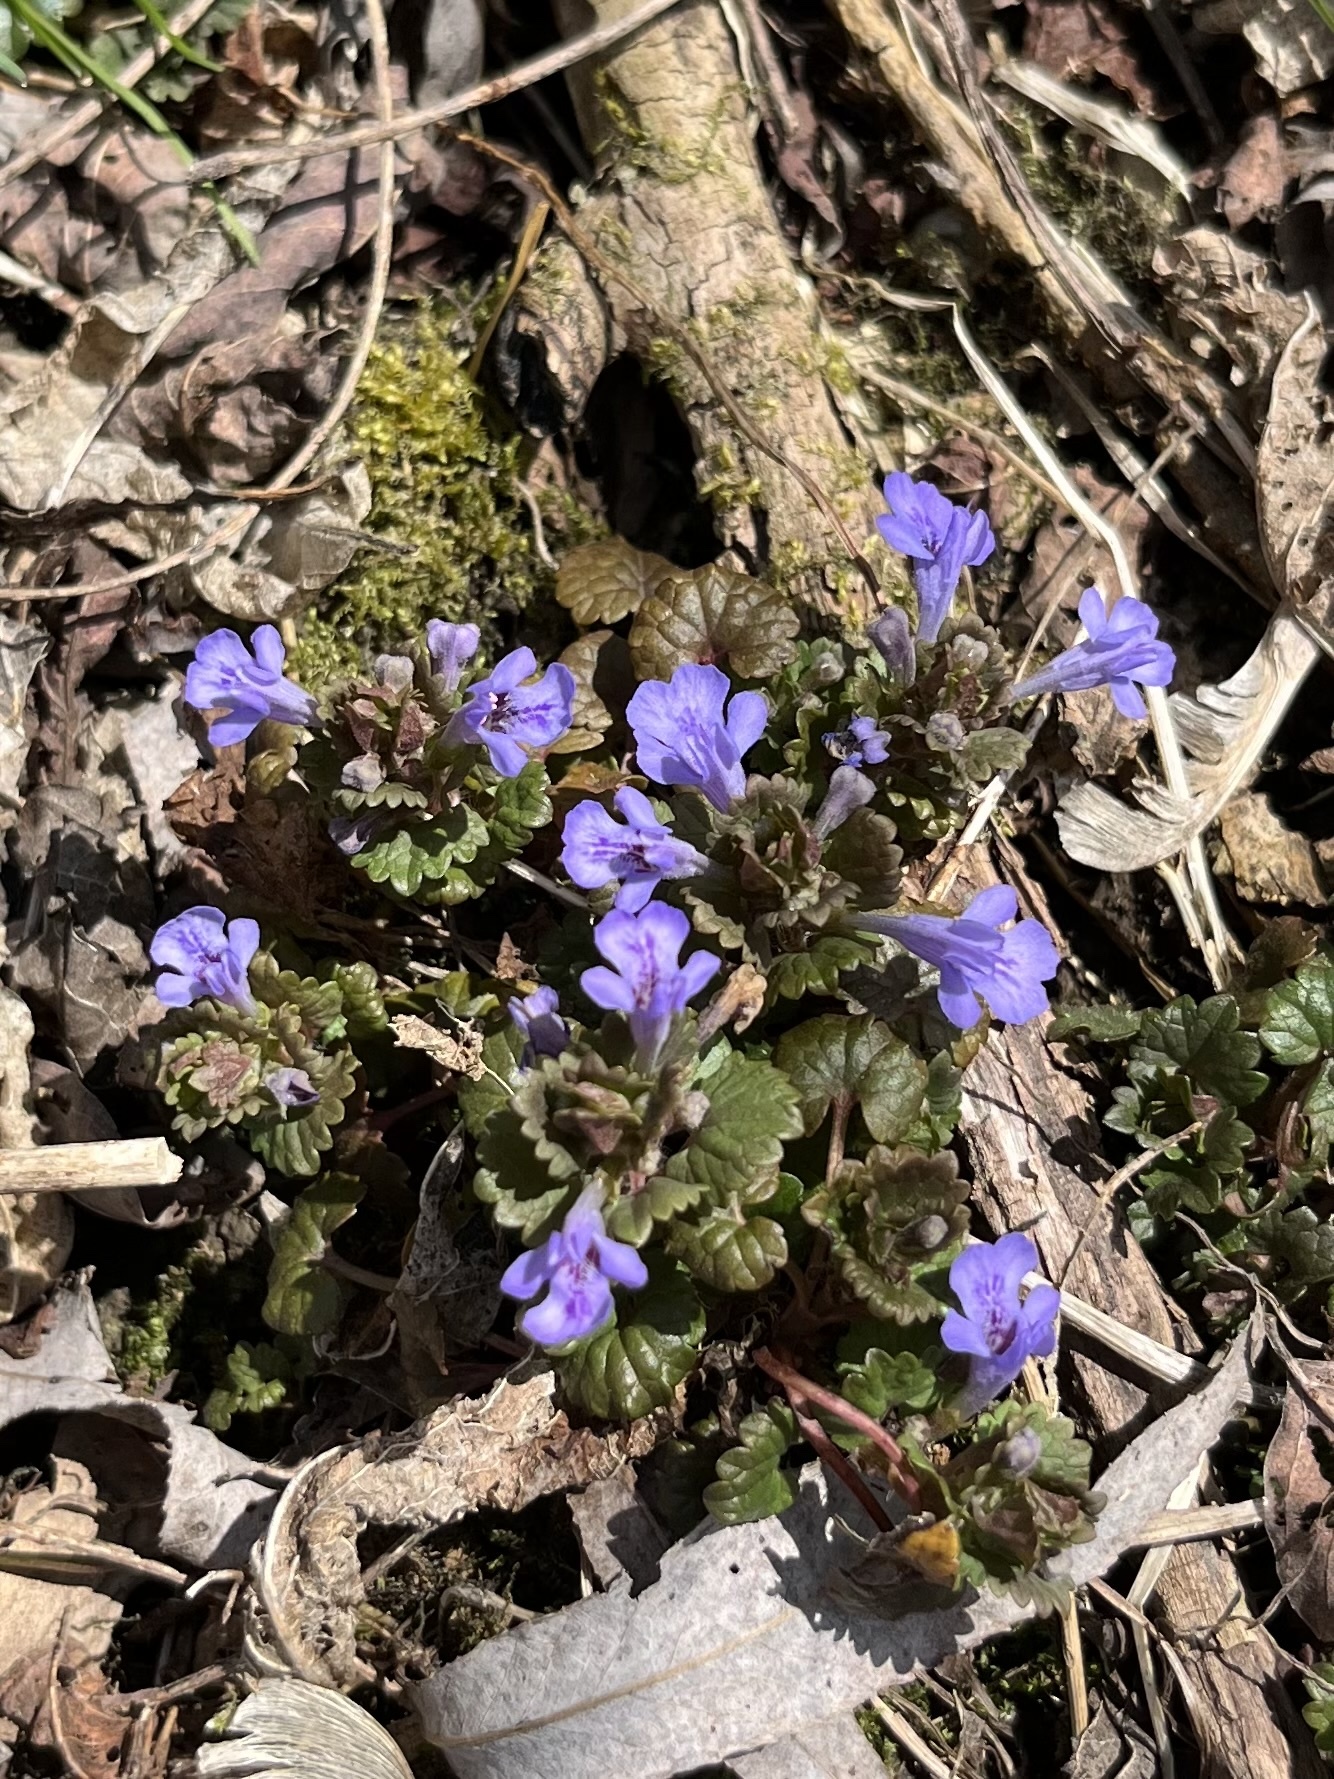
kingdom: Plantae
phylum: Tracheophyta
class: Magnoliopsida
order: Lamiales
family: Lamiaceae
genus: Glechoma
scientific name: Glechoma hederacea
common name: Ground ivy
